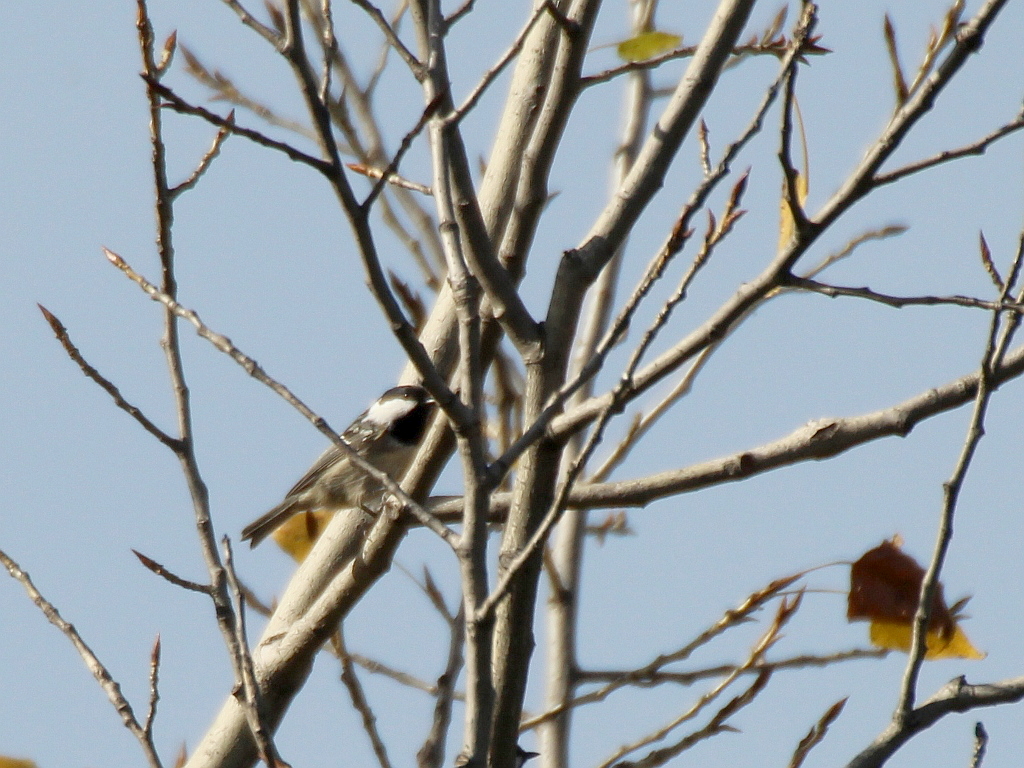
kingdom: Animalia
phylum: Chordata
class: Aves
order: Passeriformes
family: Paridae
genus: Periparus
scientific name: Periparus ater
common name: Coal tit
